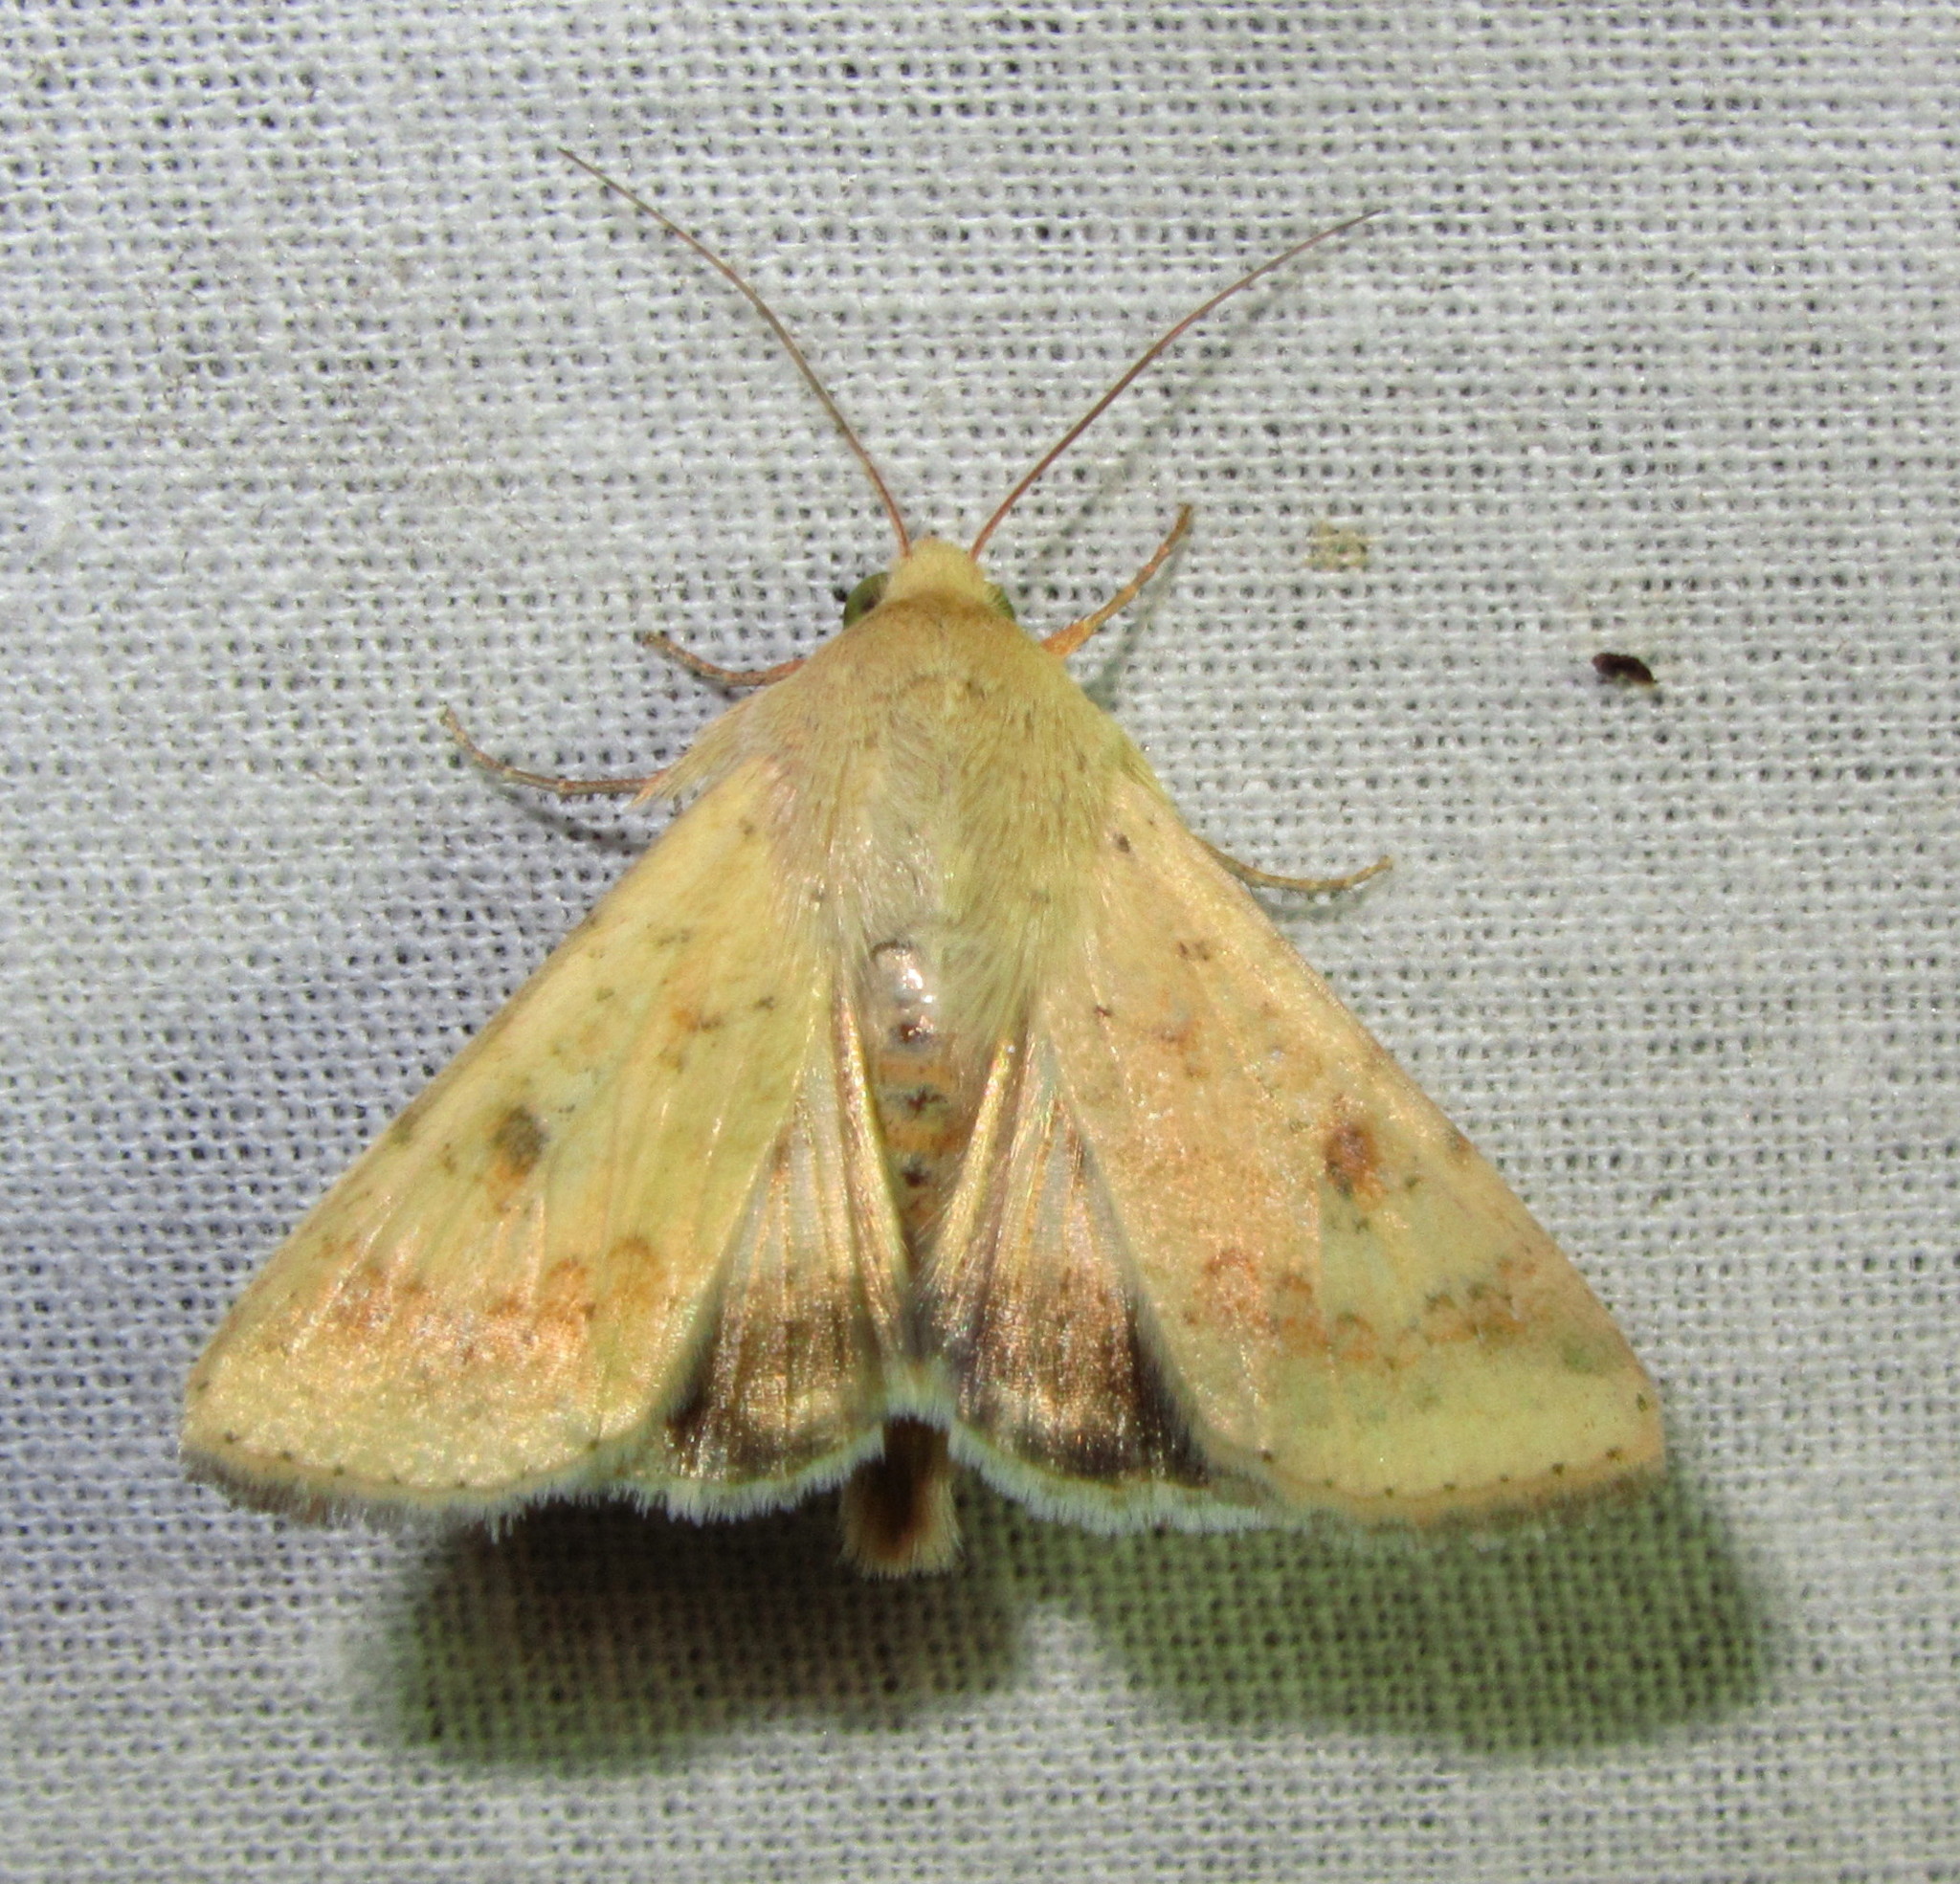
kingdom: Animalia
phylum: Arthropoda
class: Insecta
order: Lepidoptera
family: Noctuidae
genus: Helicoverpa
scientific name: Helicoverpa armigera
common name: Cotton bollworm
